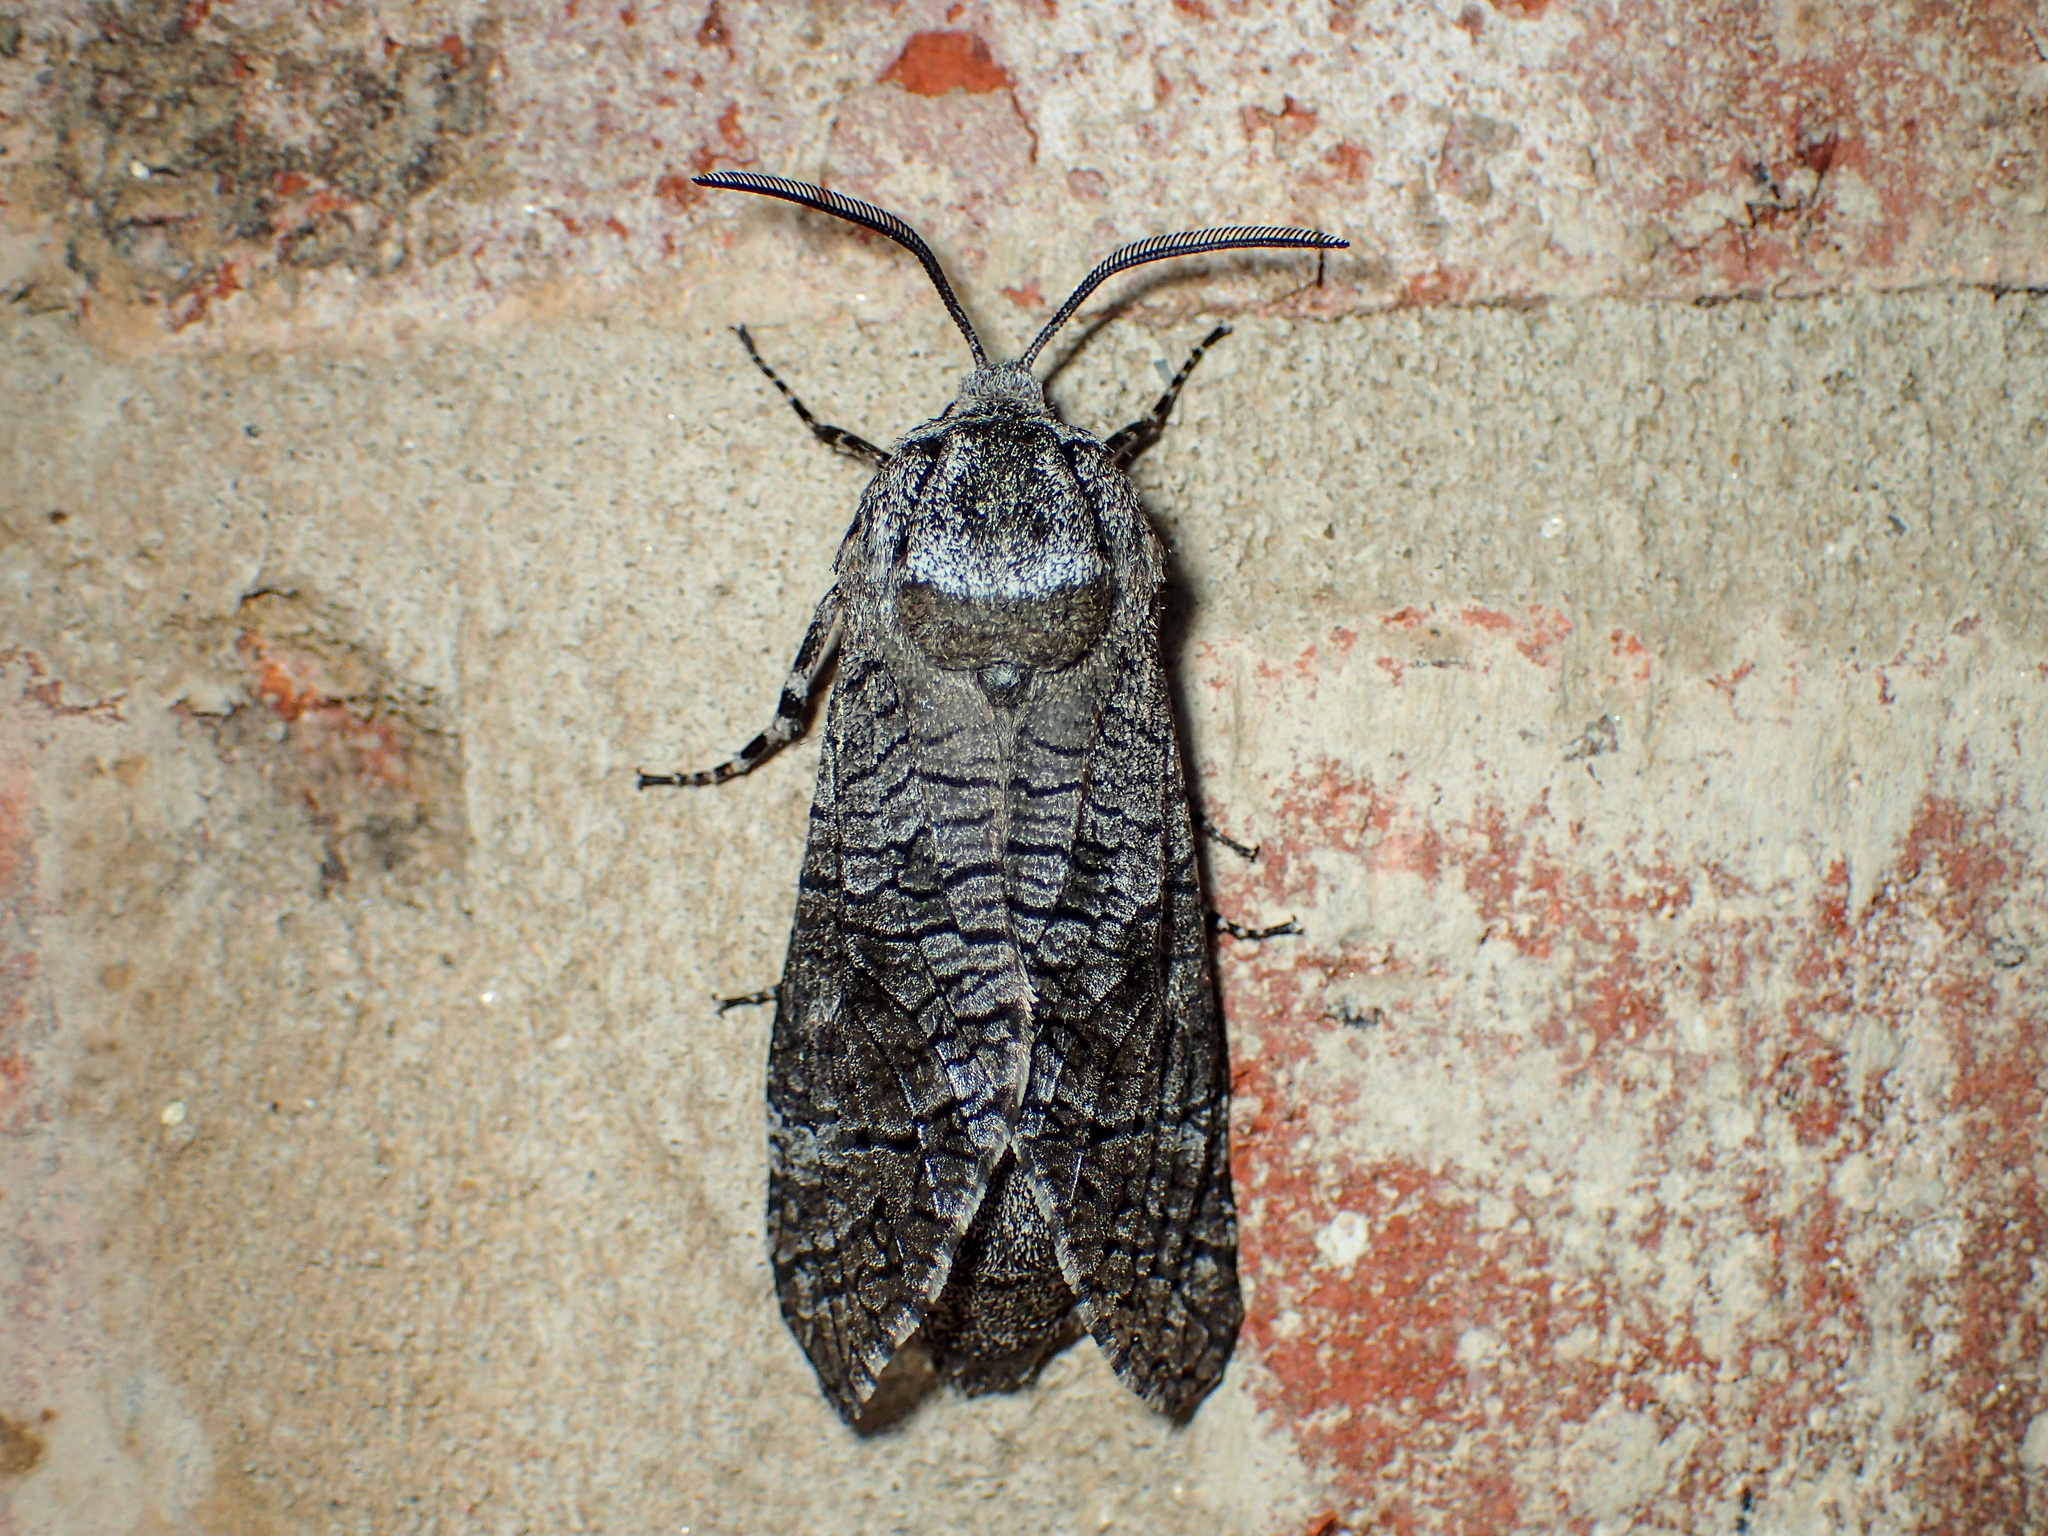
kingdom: Animalia
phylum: Arthropoda
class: Insecta
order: Lepidoptera
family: Cossidae
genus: Prionoxystus
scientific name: Prionoxystus macmurtrei
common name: Little carpenterworm
